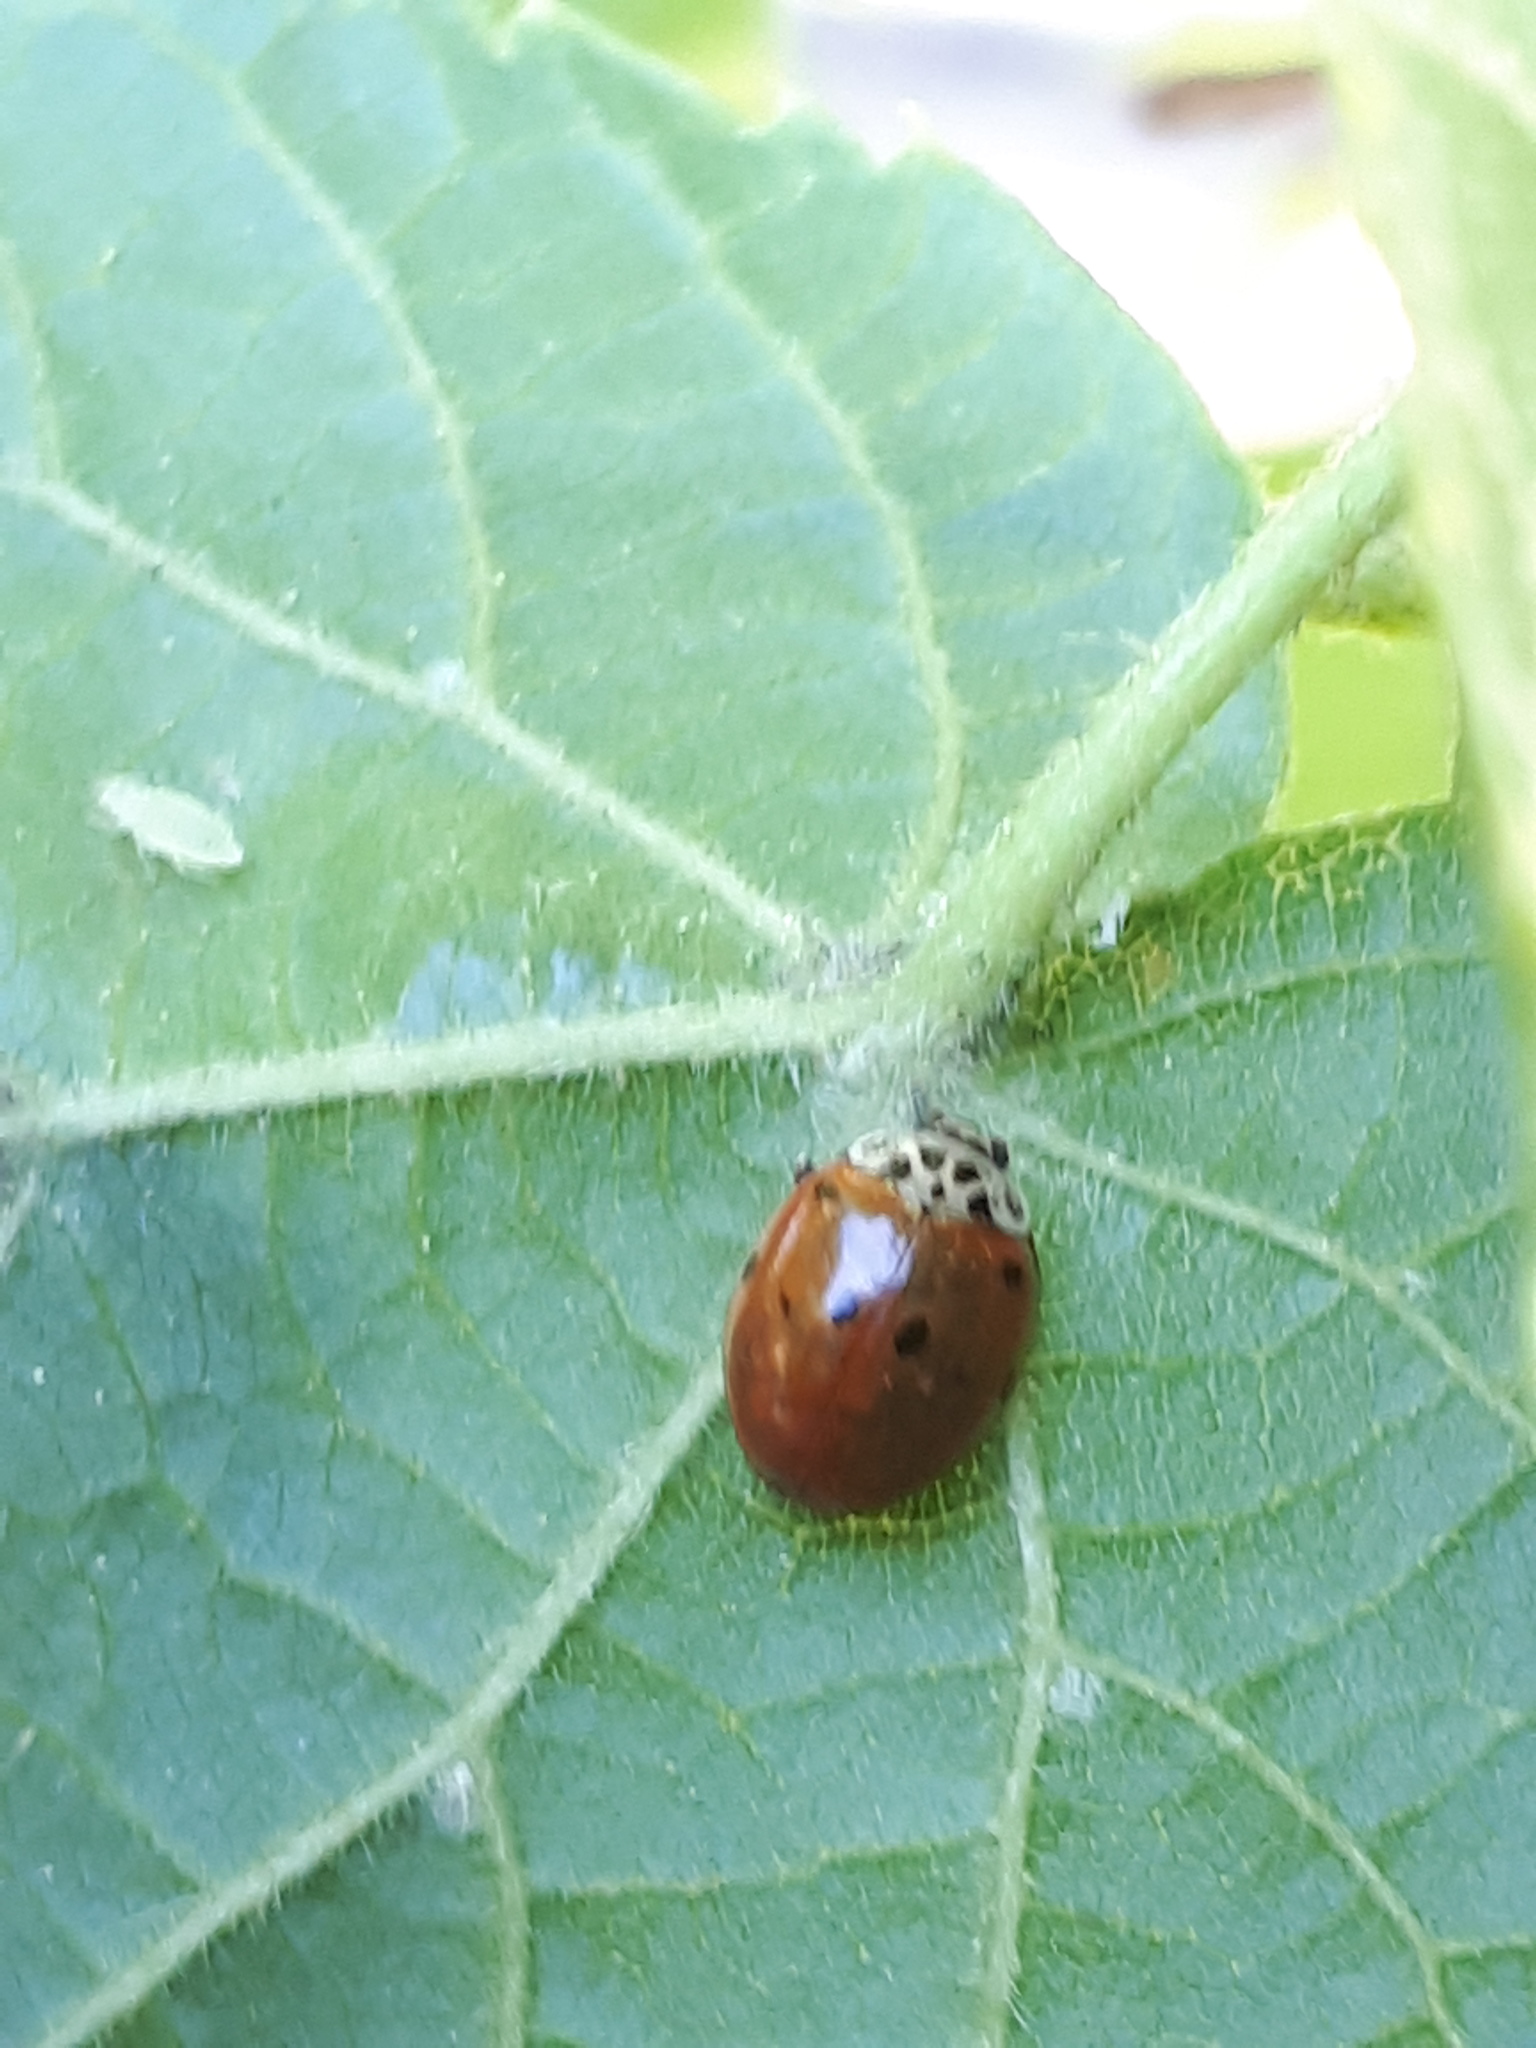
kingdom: Animalia
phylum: Arthropoda
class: Insecta
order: Coleoptera
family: Coccinellidae
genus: Adalia
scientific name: Adalia decempunctata
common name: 10-spot ladybird
